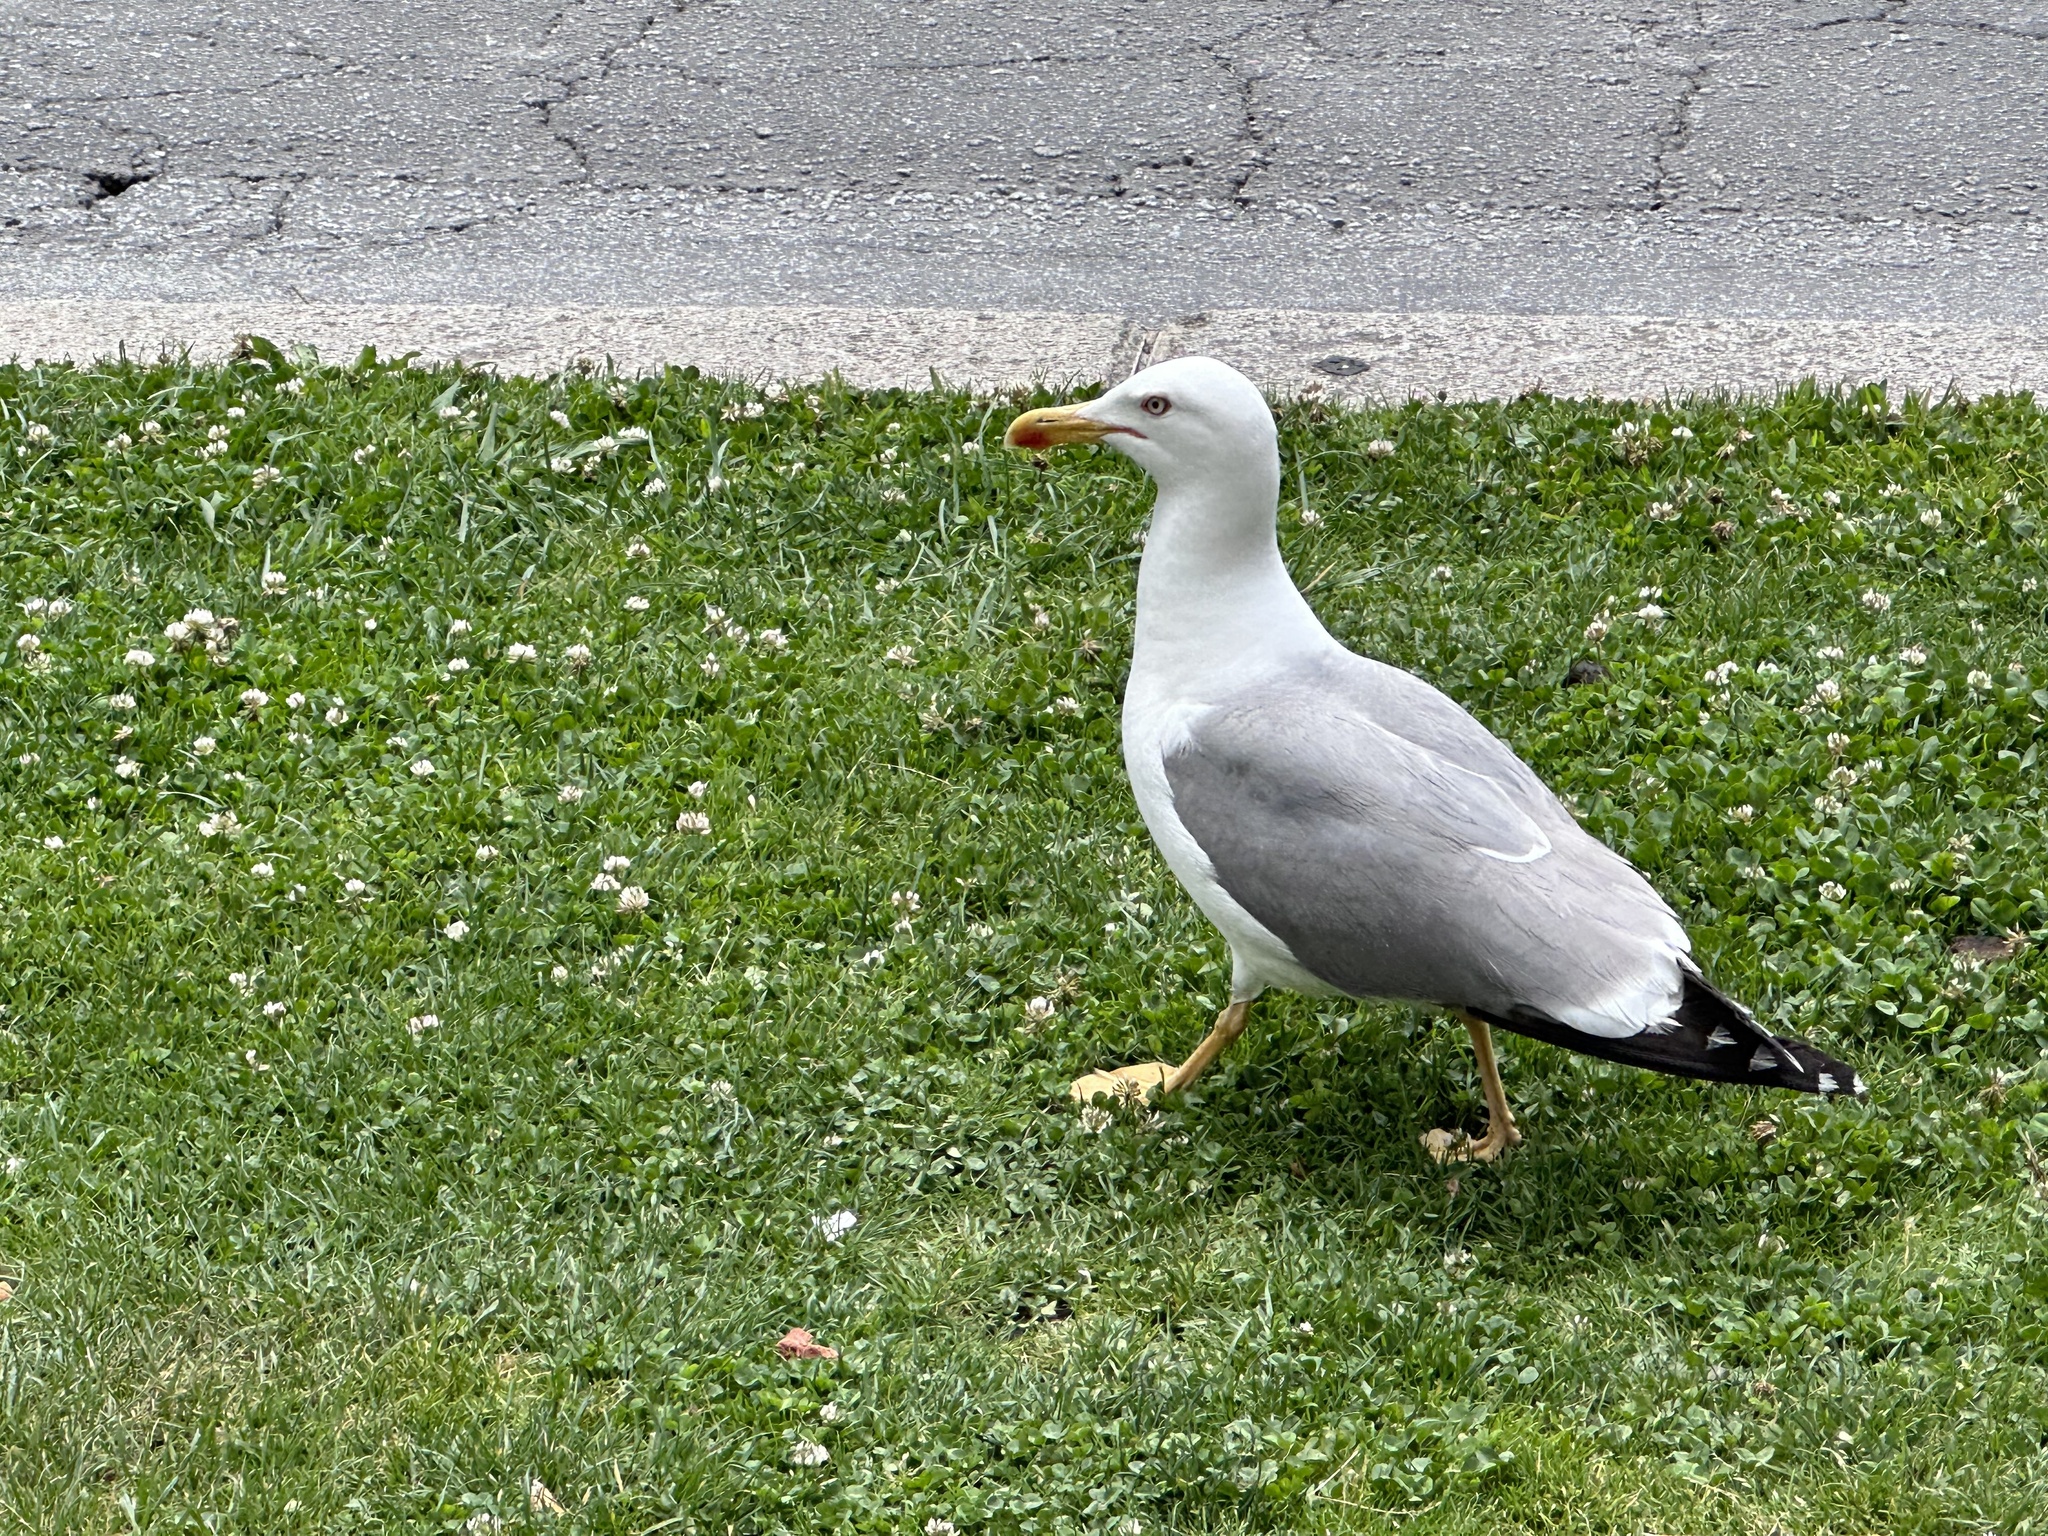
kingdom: Animalia
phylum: Chordata
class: Aves
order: Charadriiformes
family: Laridae
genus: Larus
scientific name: Larus michahellis
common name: Yellow-legged gull
